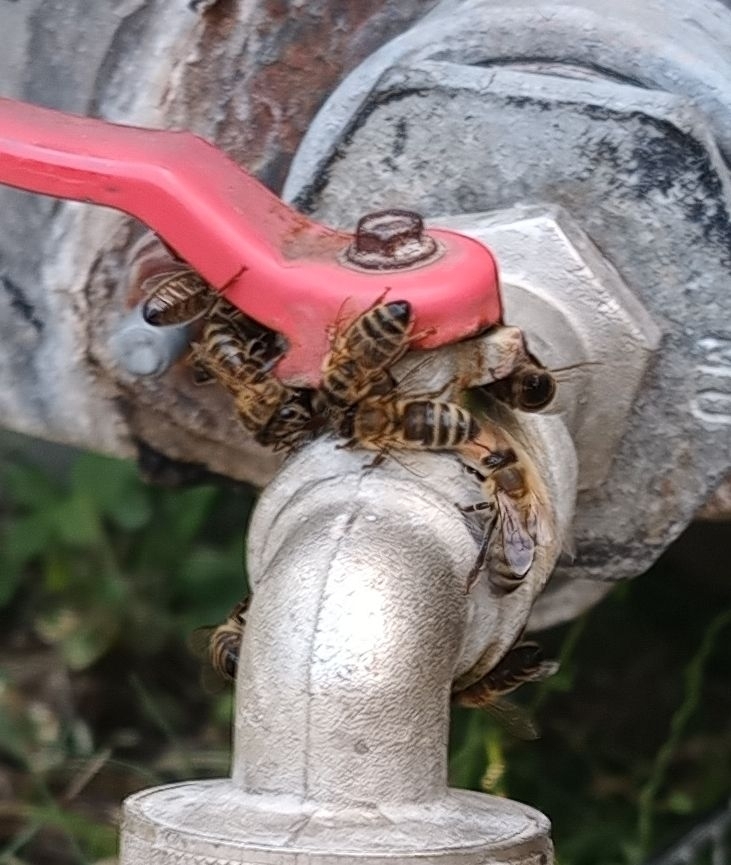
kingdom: Animalia
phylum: Arthropoda
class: Insecta
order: Hymenoptera
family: Apidae
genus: Apis
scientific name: Apis mellifera
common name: Honey bee
